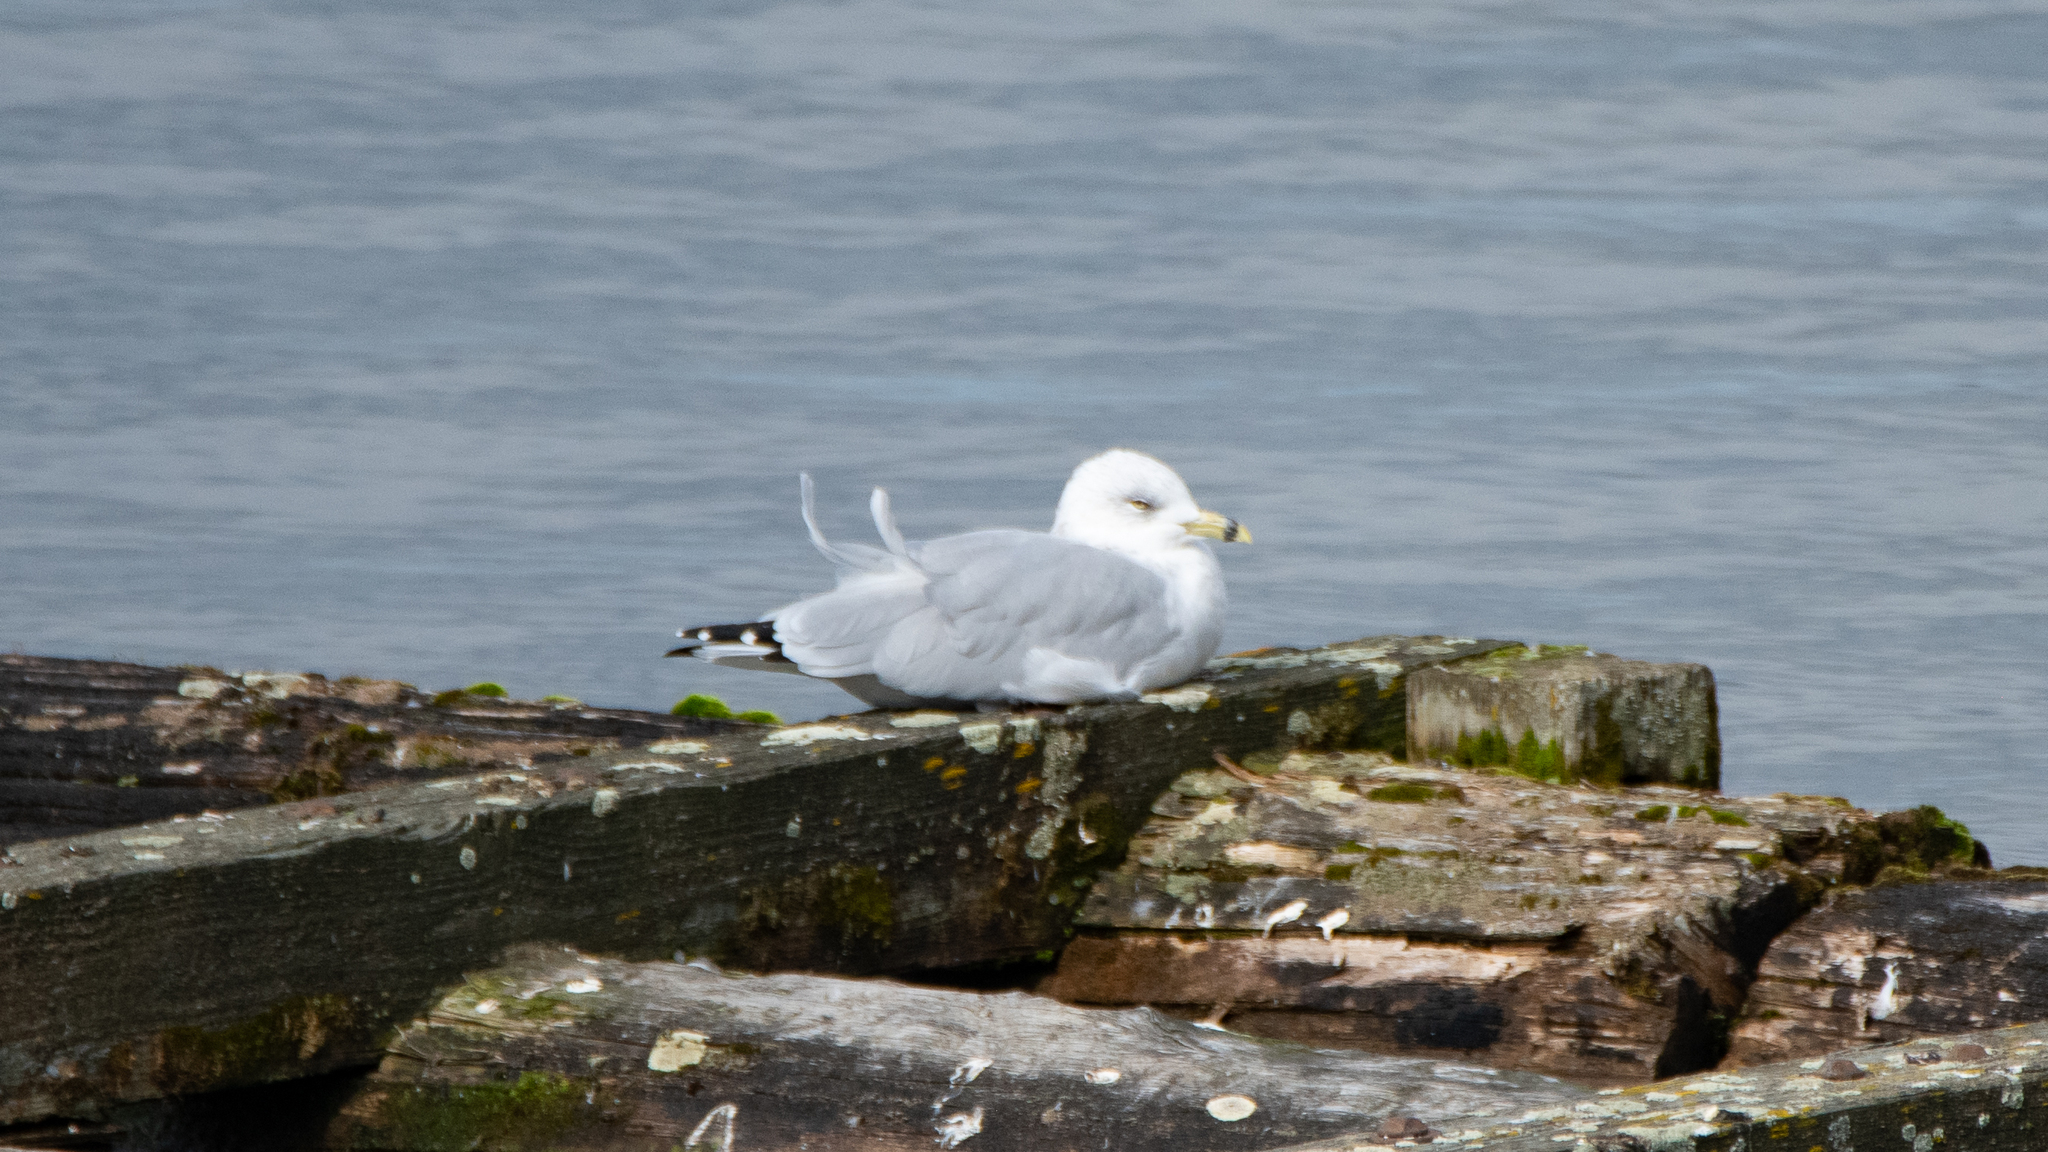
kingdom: Animalia
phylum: Chordata
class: Aves
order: Charadriiformes
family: Laridae
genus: Larus
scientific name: Larus delawarensis
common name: Ring-billed gull
